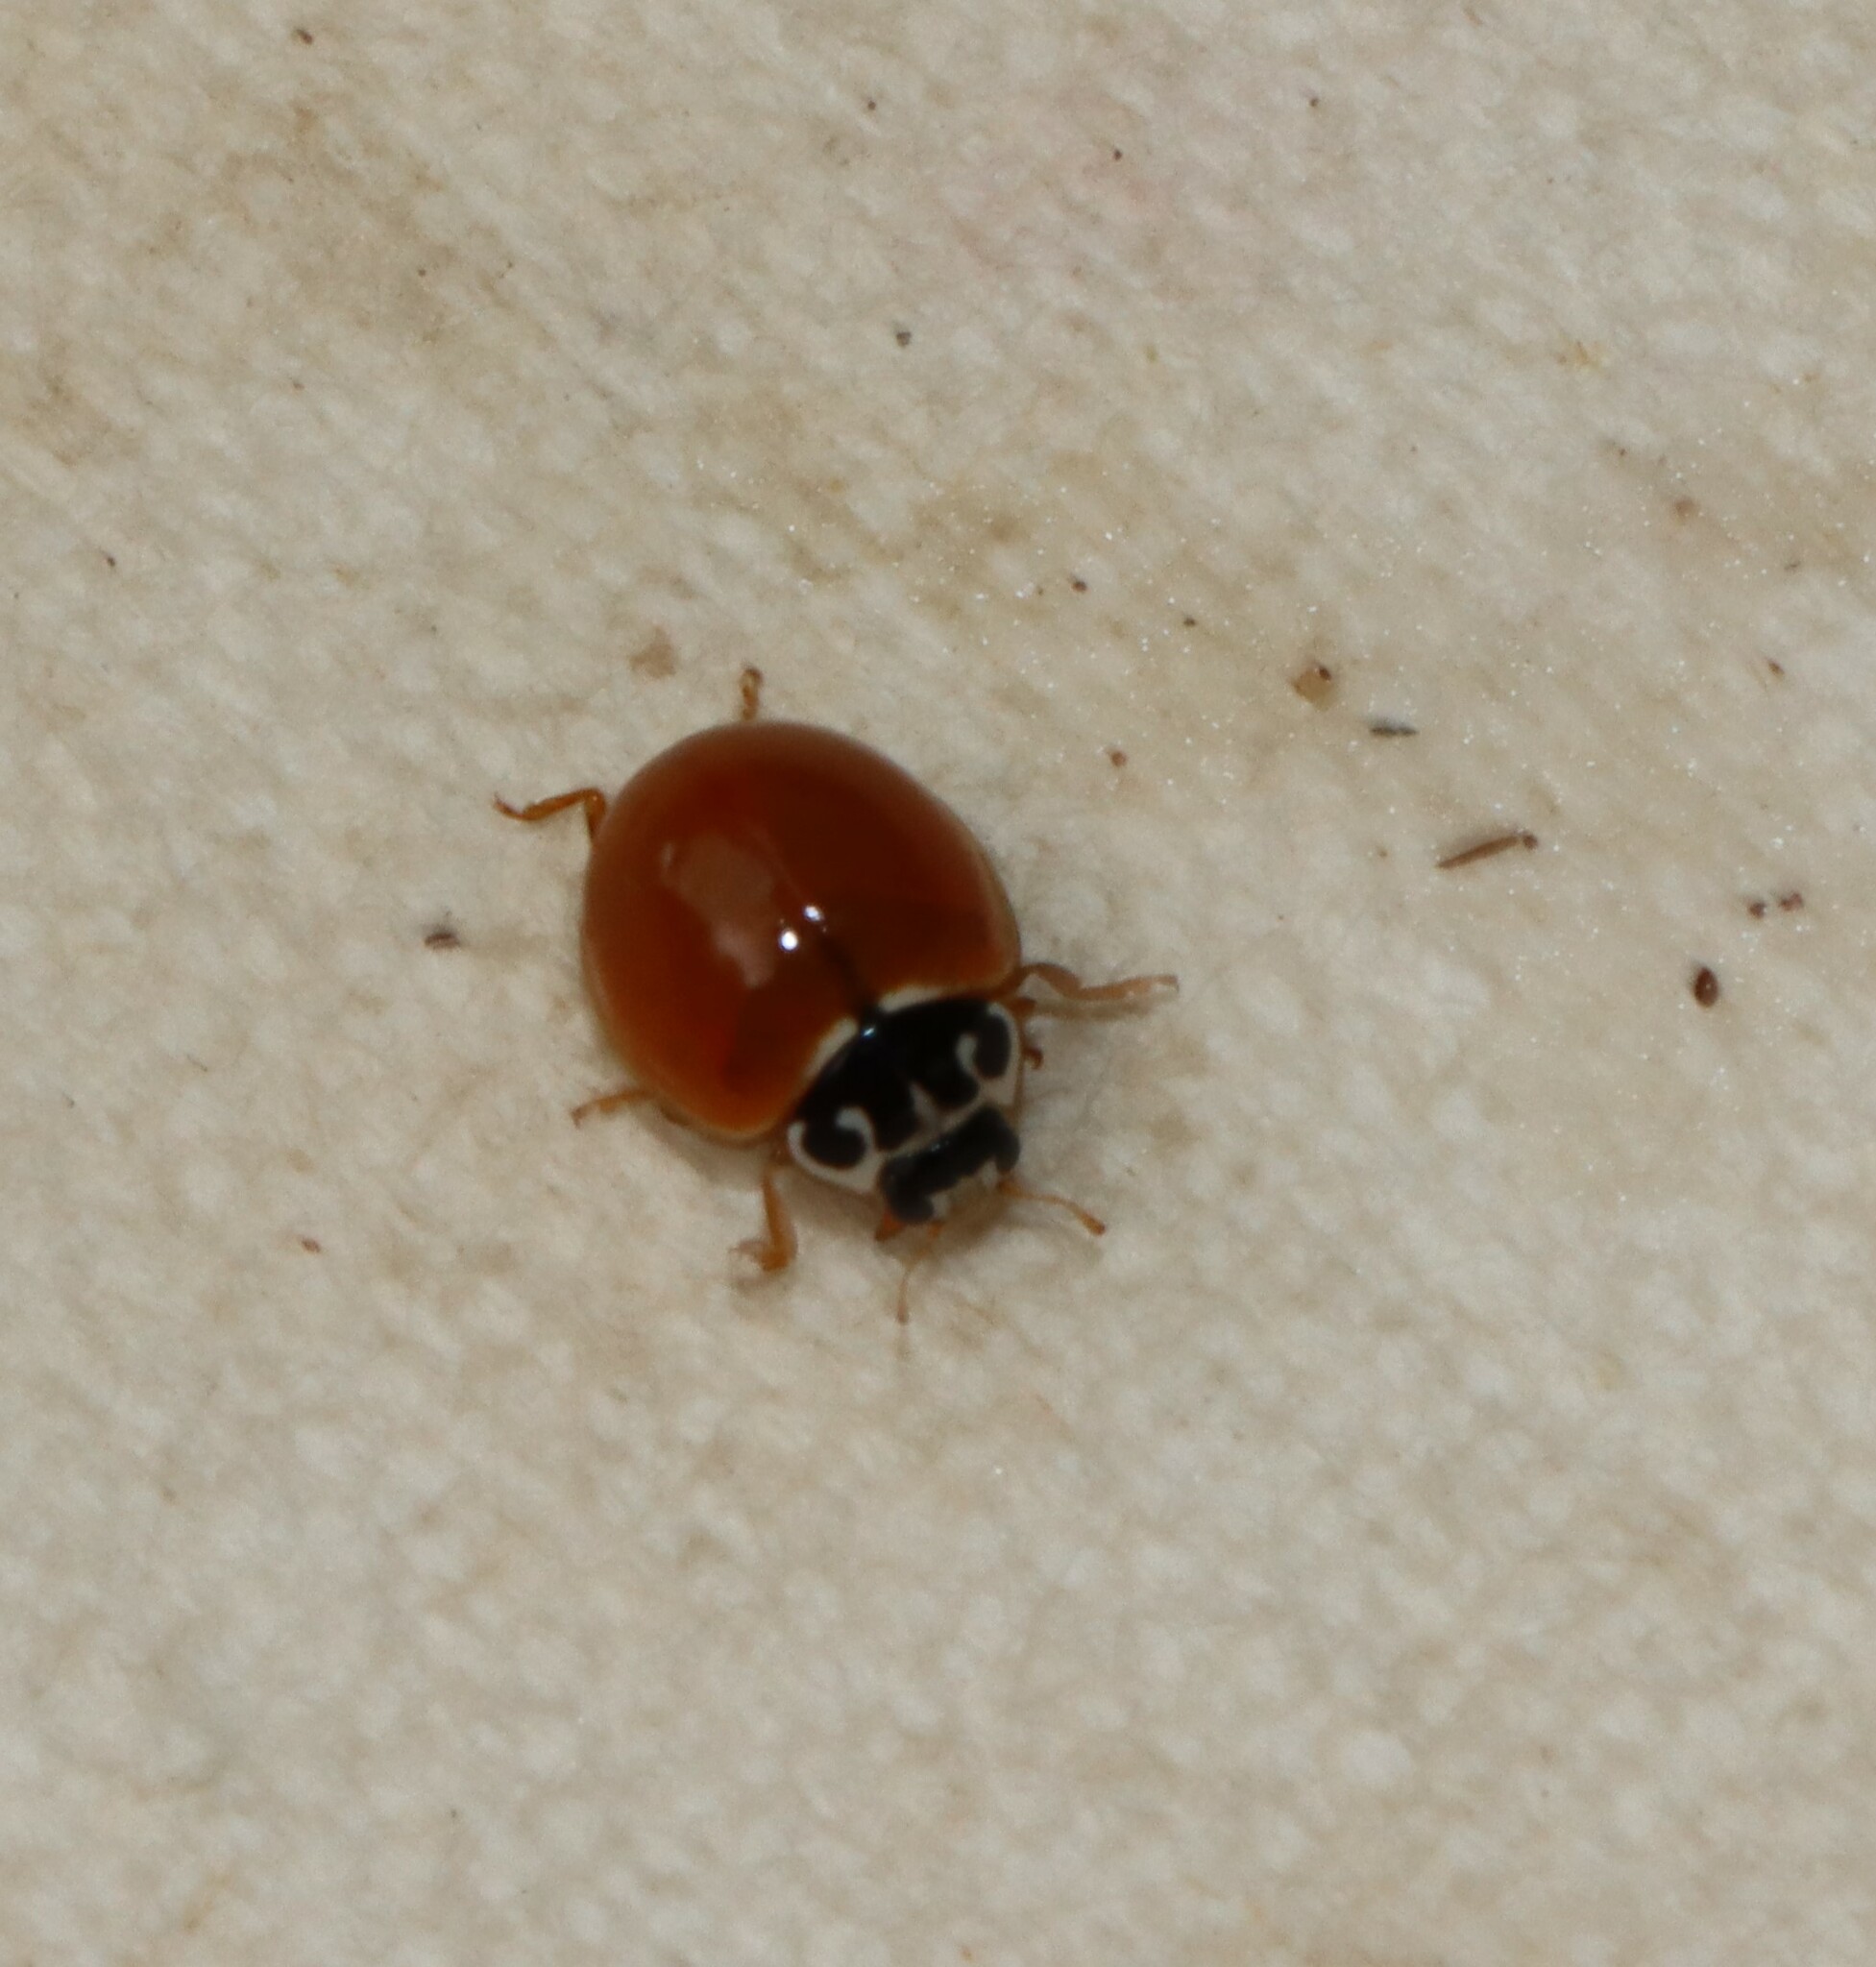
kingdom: Animalia
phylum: Arthropoda
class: Insecta
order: Coleoptera
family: Coccinellidae
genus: Cycloneda
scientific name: Cycloneda munda
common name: Polished lady beetle
